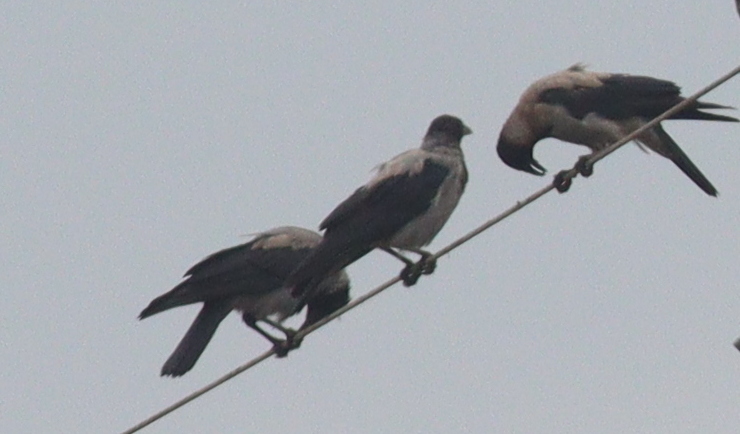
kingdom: Animalia
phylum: Chordata
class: Aves
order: Passeriformes
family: Corvidae
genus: Corvus
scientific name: Corvus cornix
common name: Hooded crow
